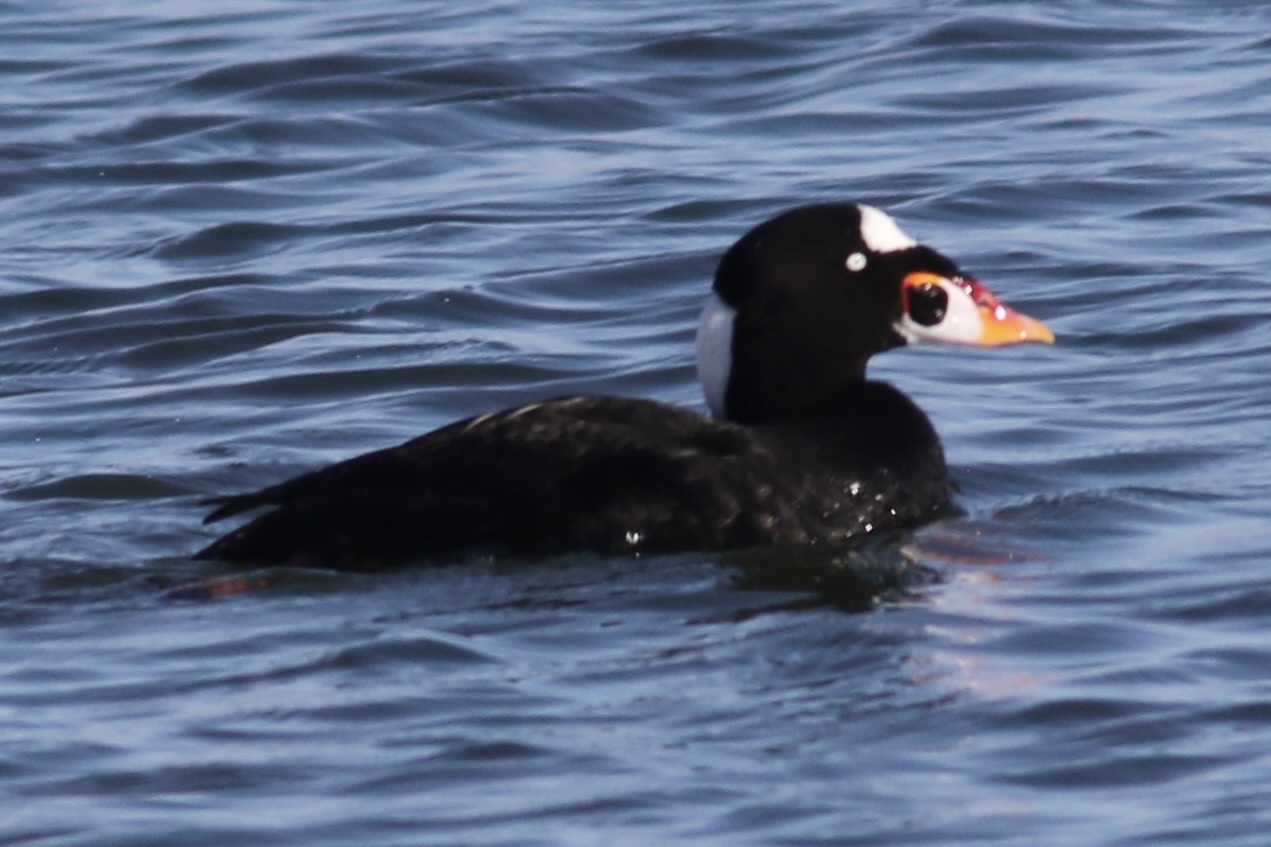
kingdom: Animalia
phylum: Chordata
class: Aves
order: Anseriformes
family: Anatidae
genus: Melanitta
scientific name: Melanitta perspicillata
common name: Surf scoter
